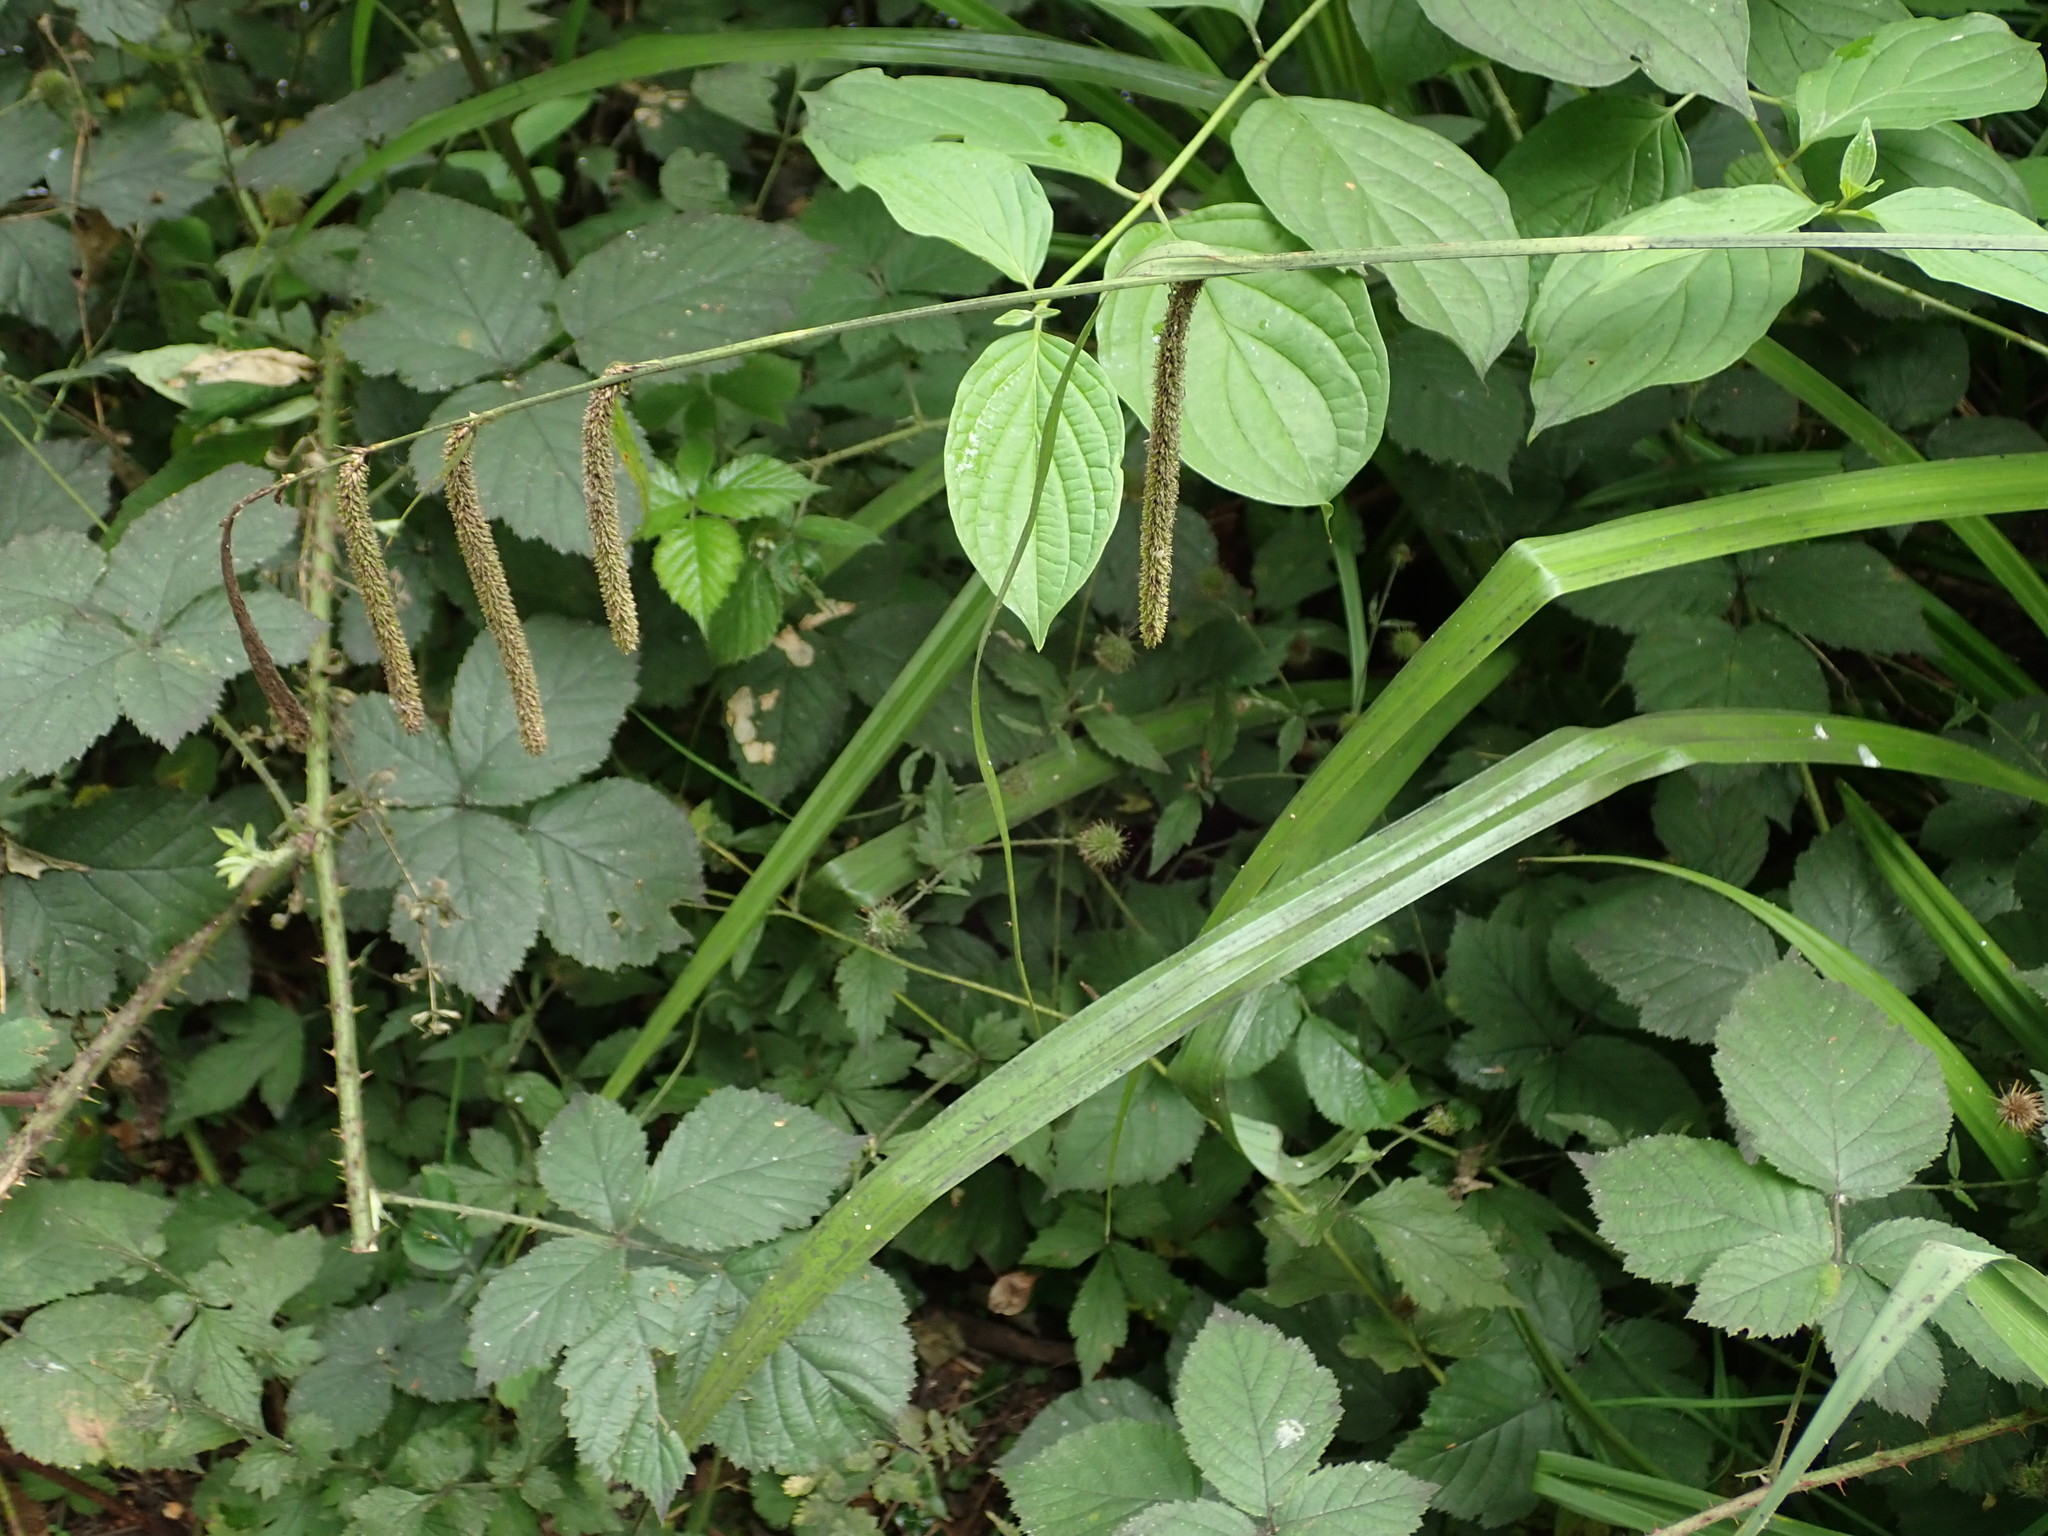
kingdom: Plantae
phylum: Tracheophyta
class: Liliopsida
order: Poales
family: Cyperaceae
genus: Carex
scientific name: Carex pendula
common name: Pendulous sedge
